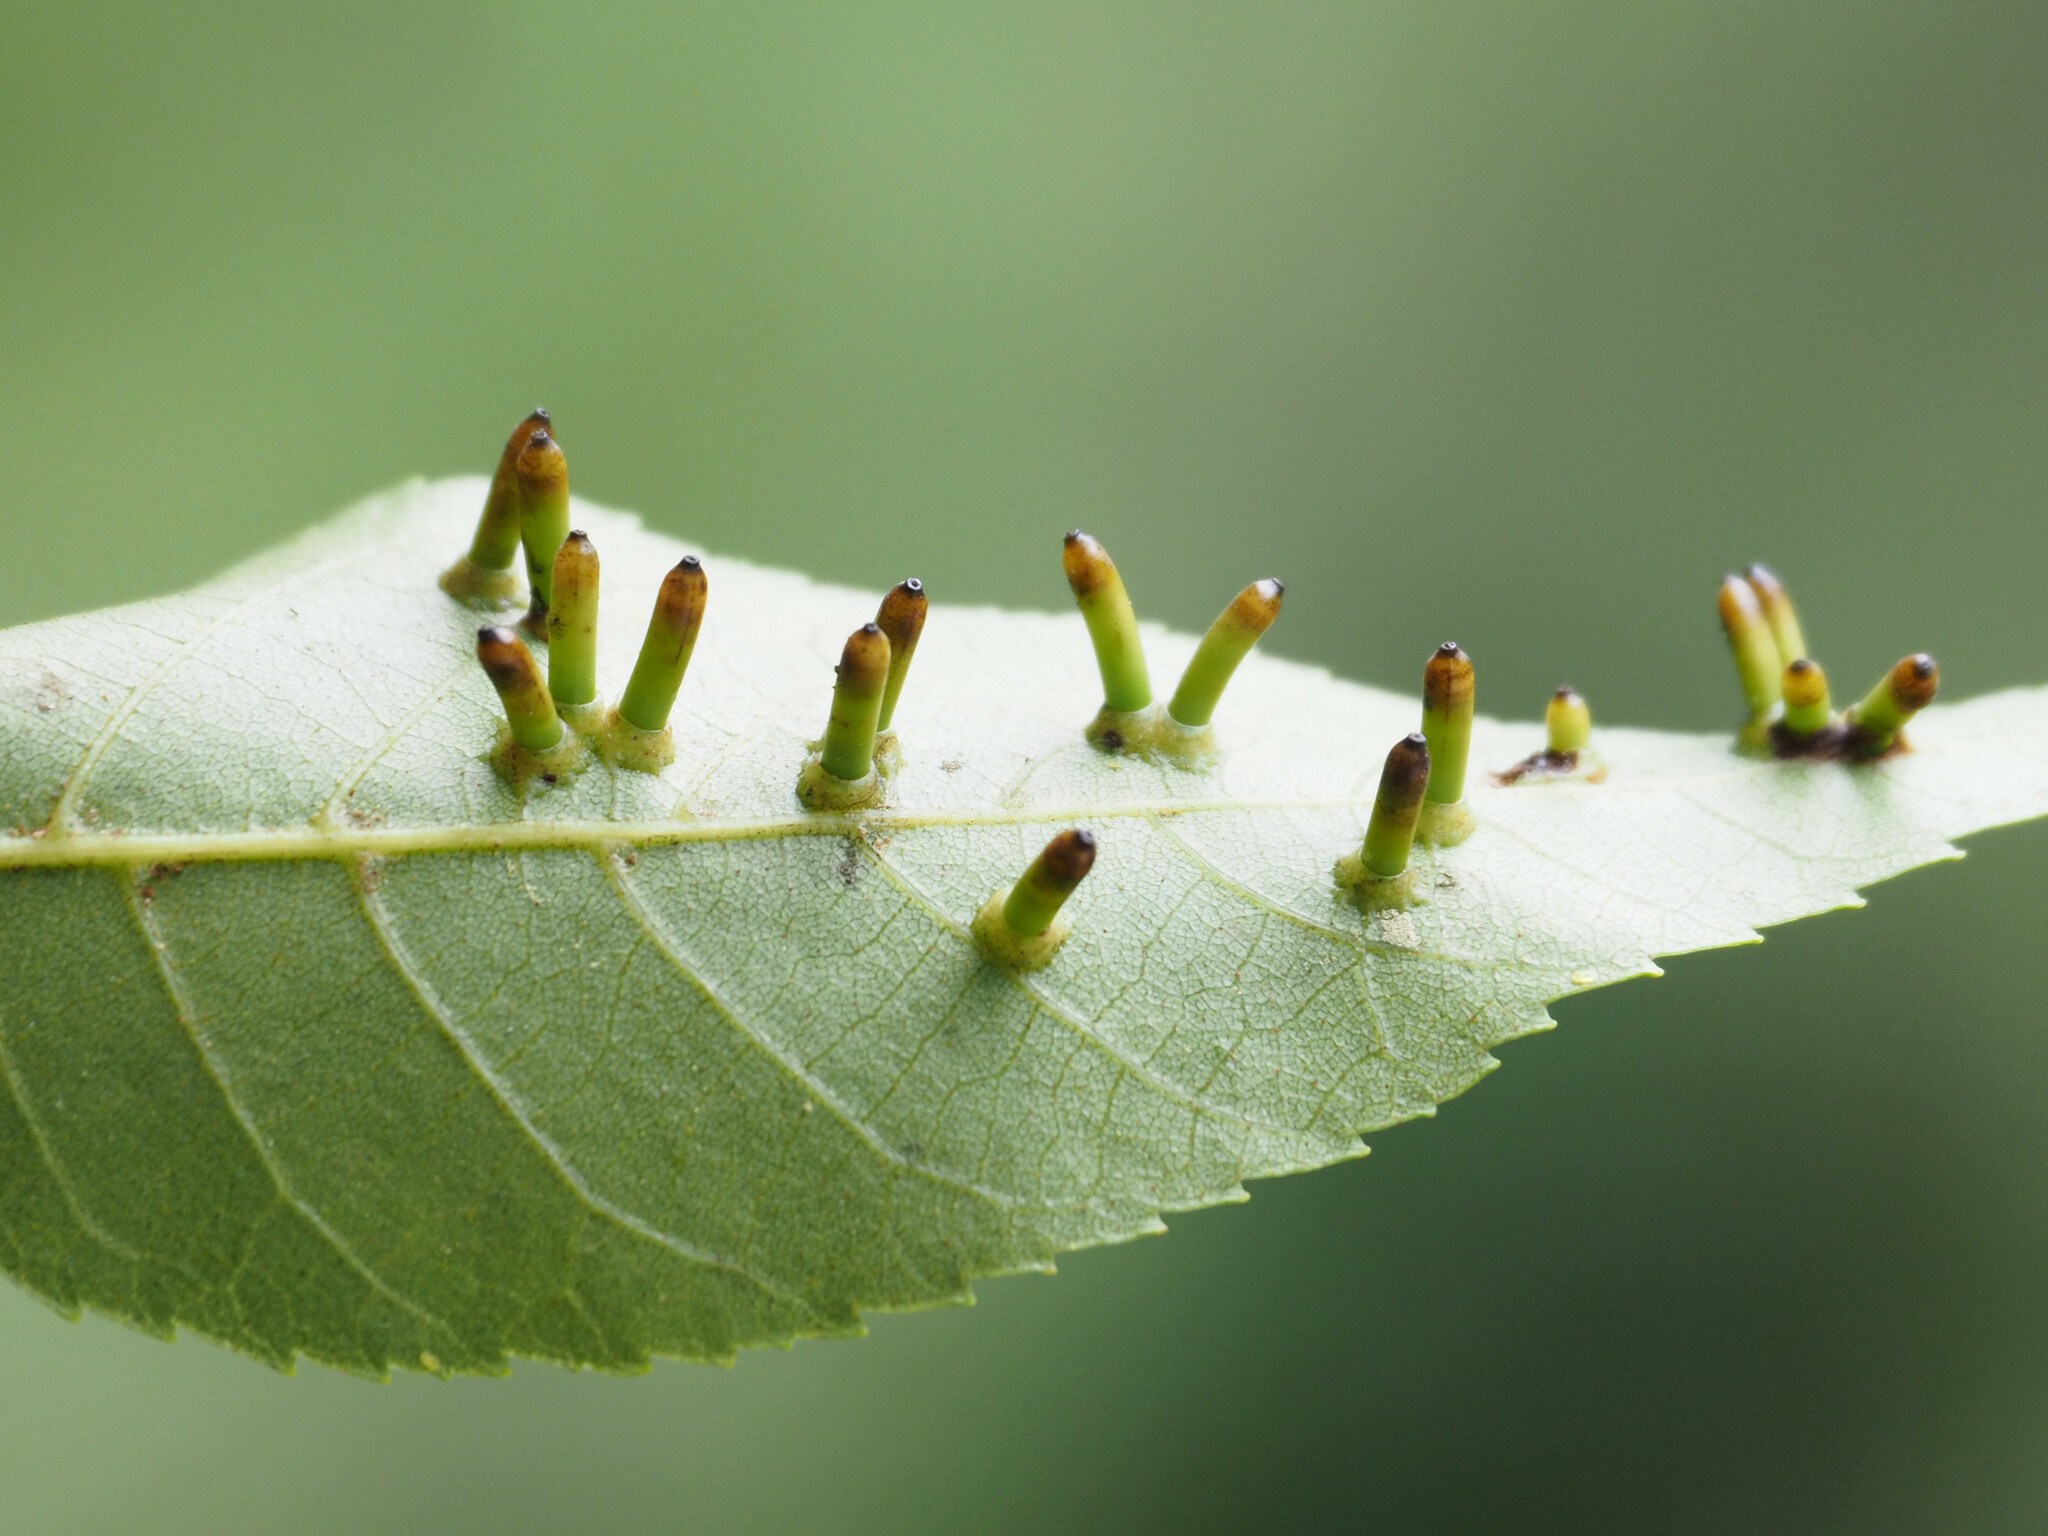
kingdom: Animalia
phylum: Arthropoda
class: Insecta
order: Diptera
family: Cecidomyiidae
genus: Caryomyia
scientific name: Caryomyia tubicola
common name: Hickory bullet gall midge
